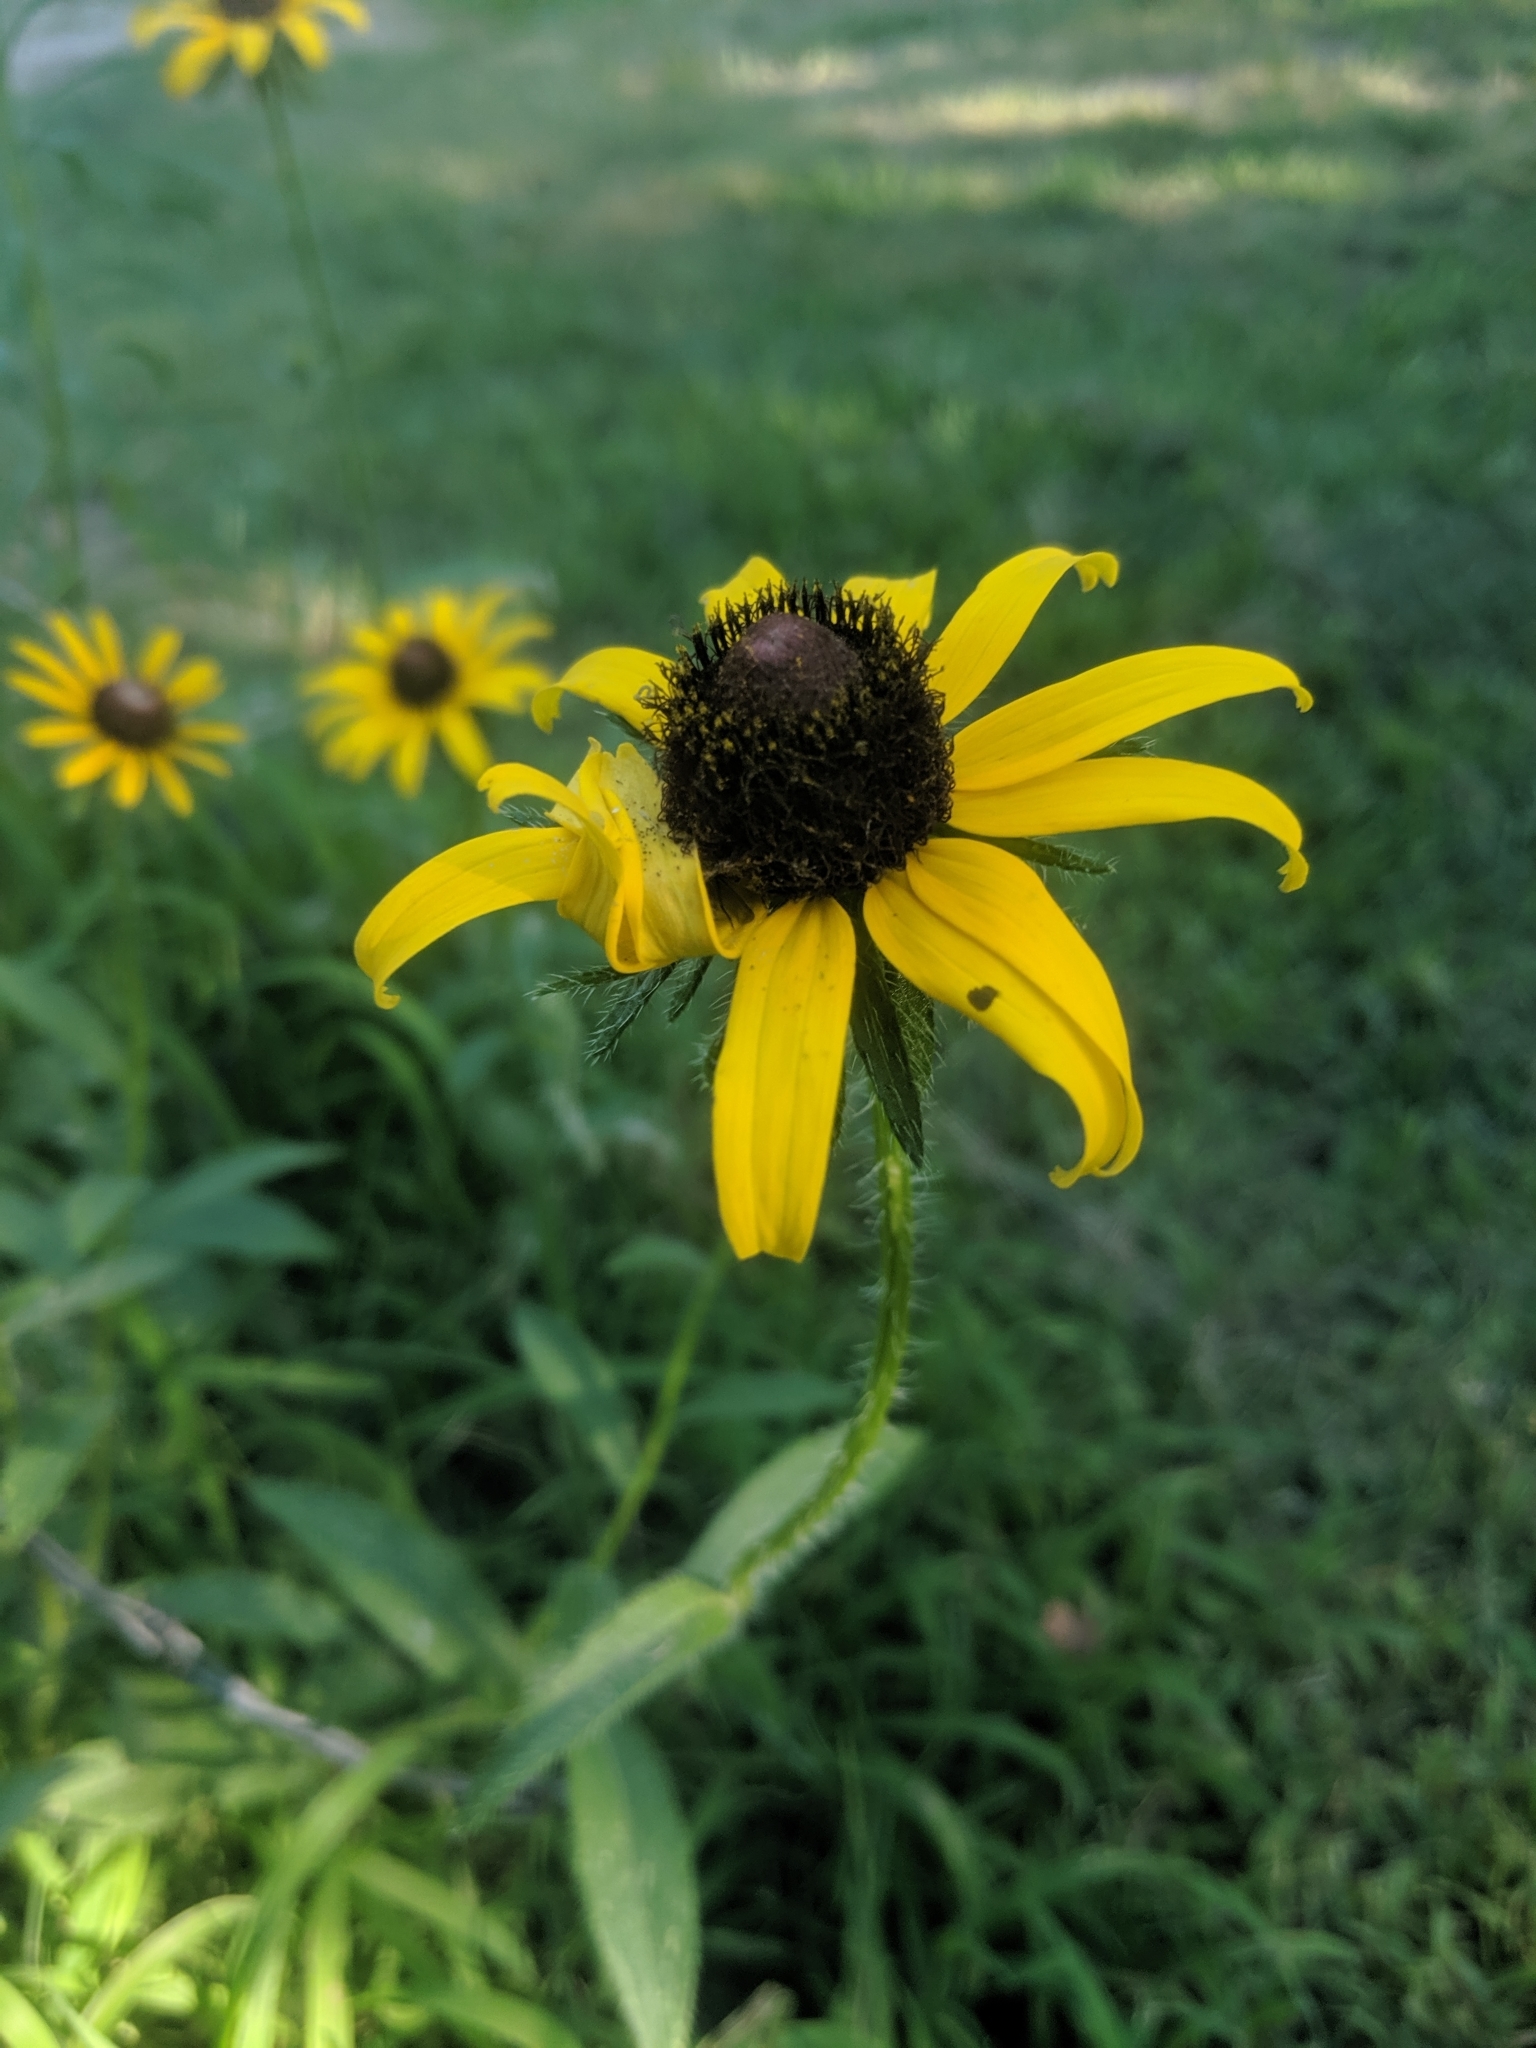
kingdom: Plantae
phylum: Tracheophyta
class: Magnoliopsida
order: Asterales
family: Asteraceae
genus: Rudbeckia
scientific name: Rudbeckia hirta
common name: Black-eyed-susan
